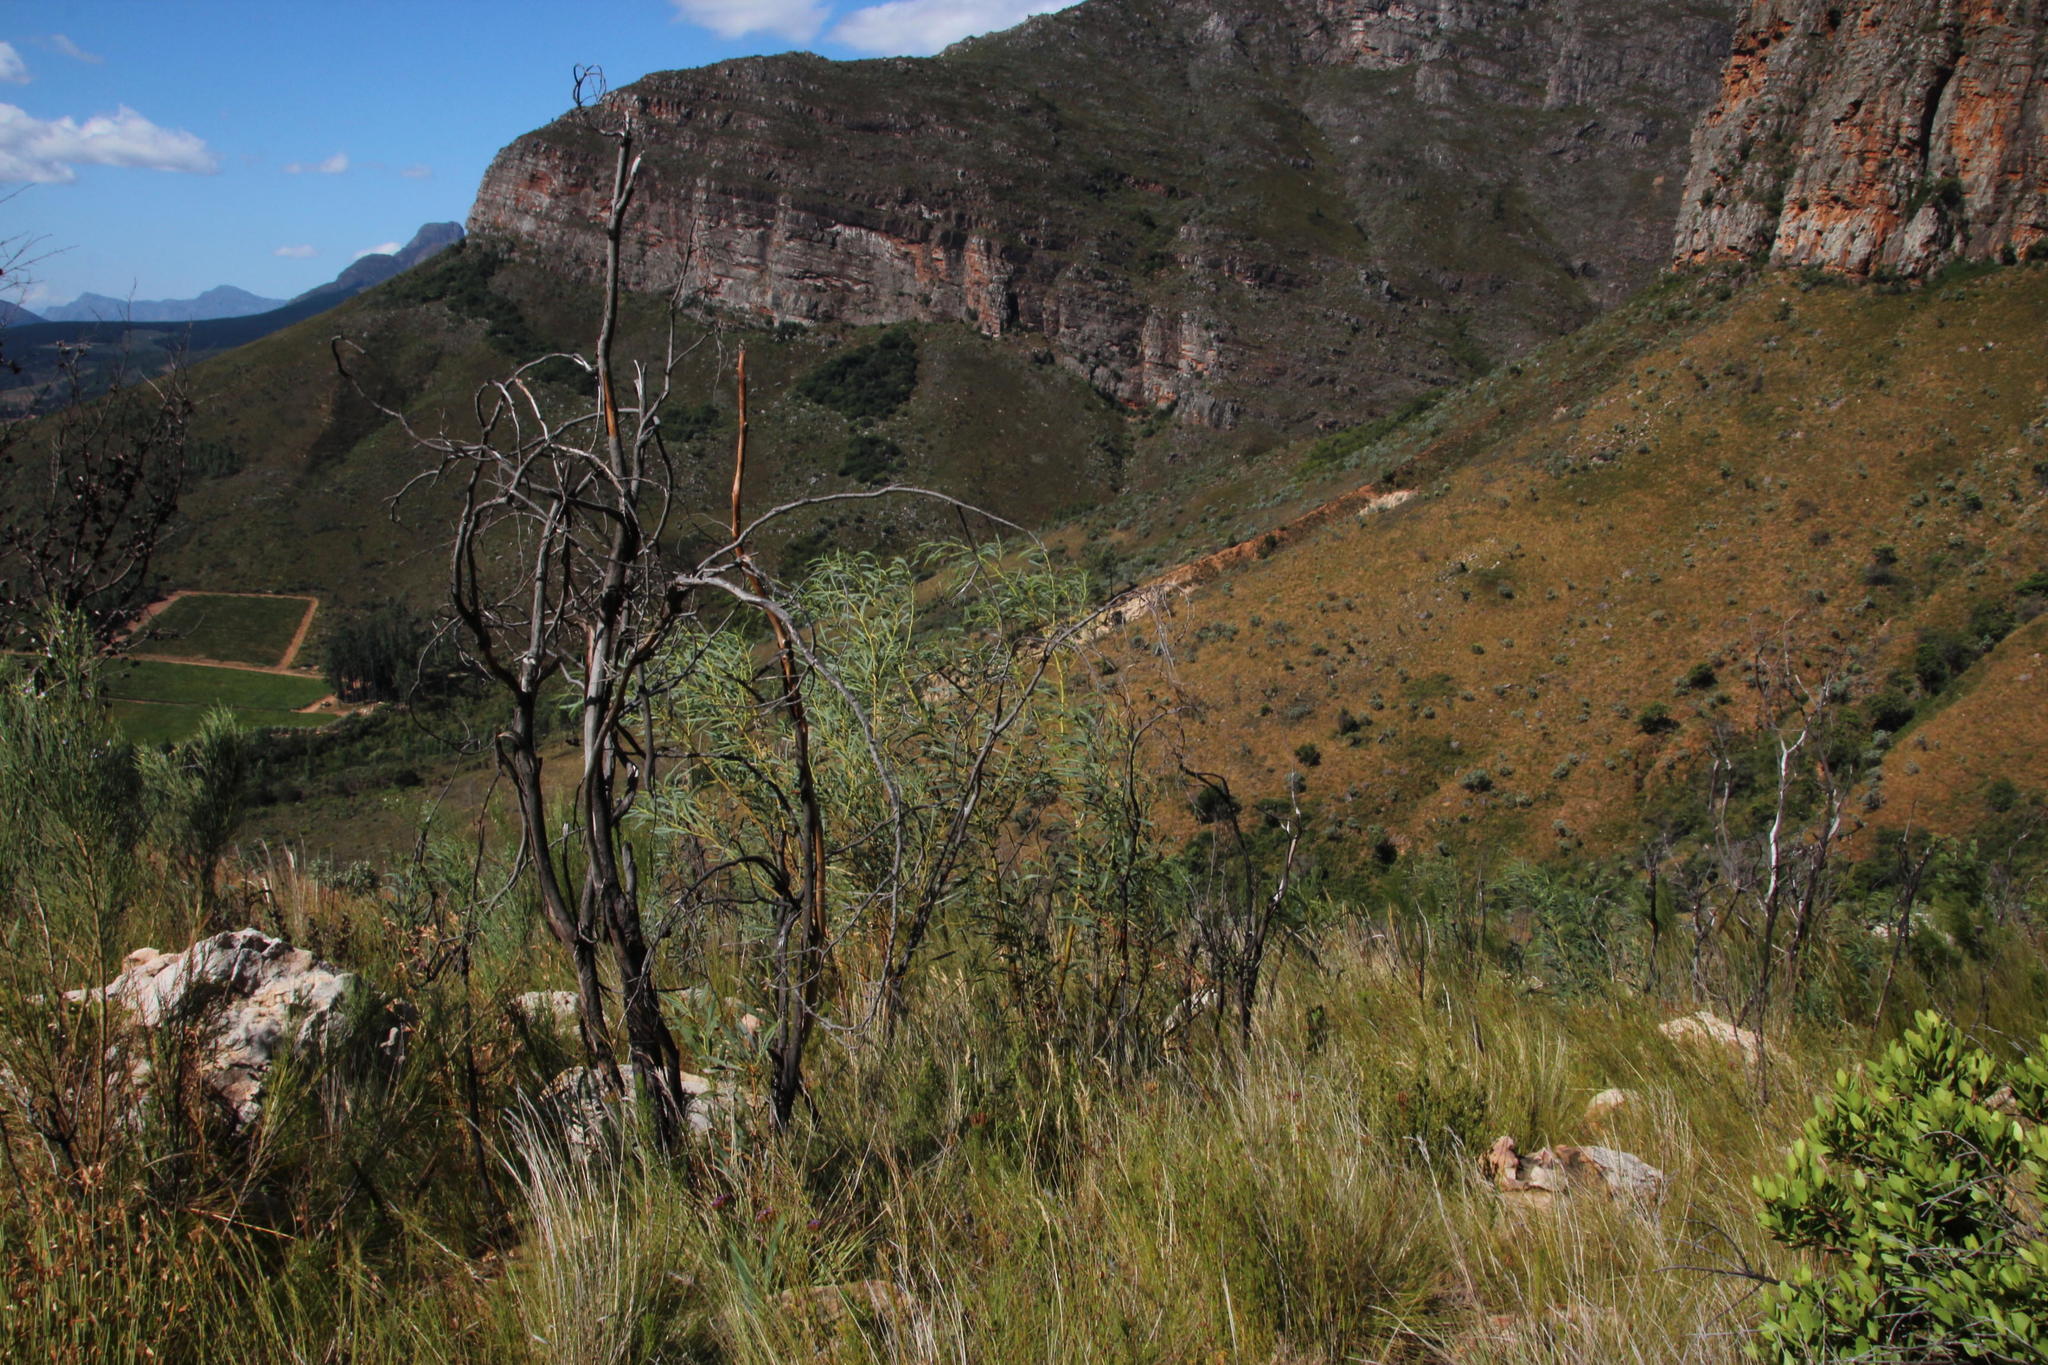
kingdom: Plantae
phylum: Tracheophyta
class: Magnoliopsida
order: Fabales
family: Fabaceae
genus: Acacia
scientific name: Acacia saligna
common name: Orange wattle
